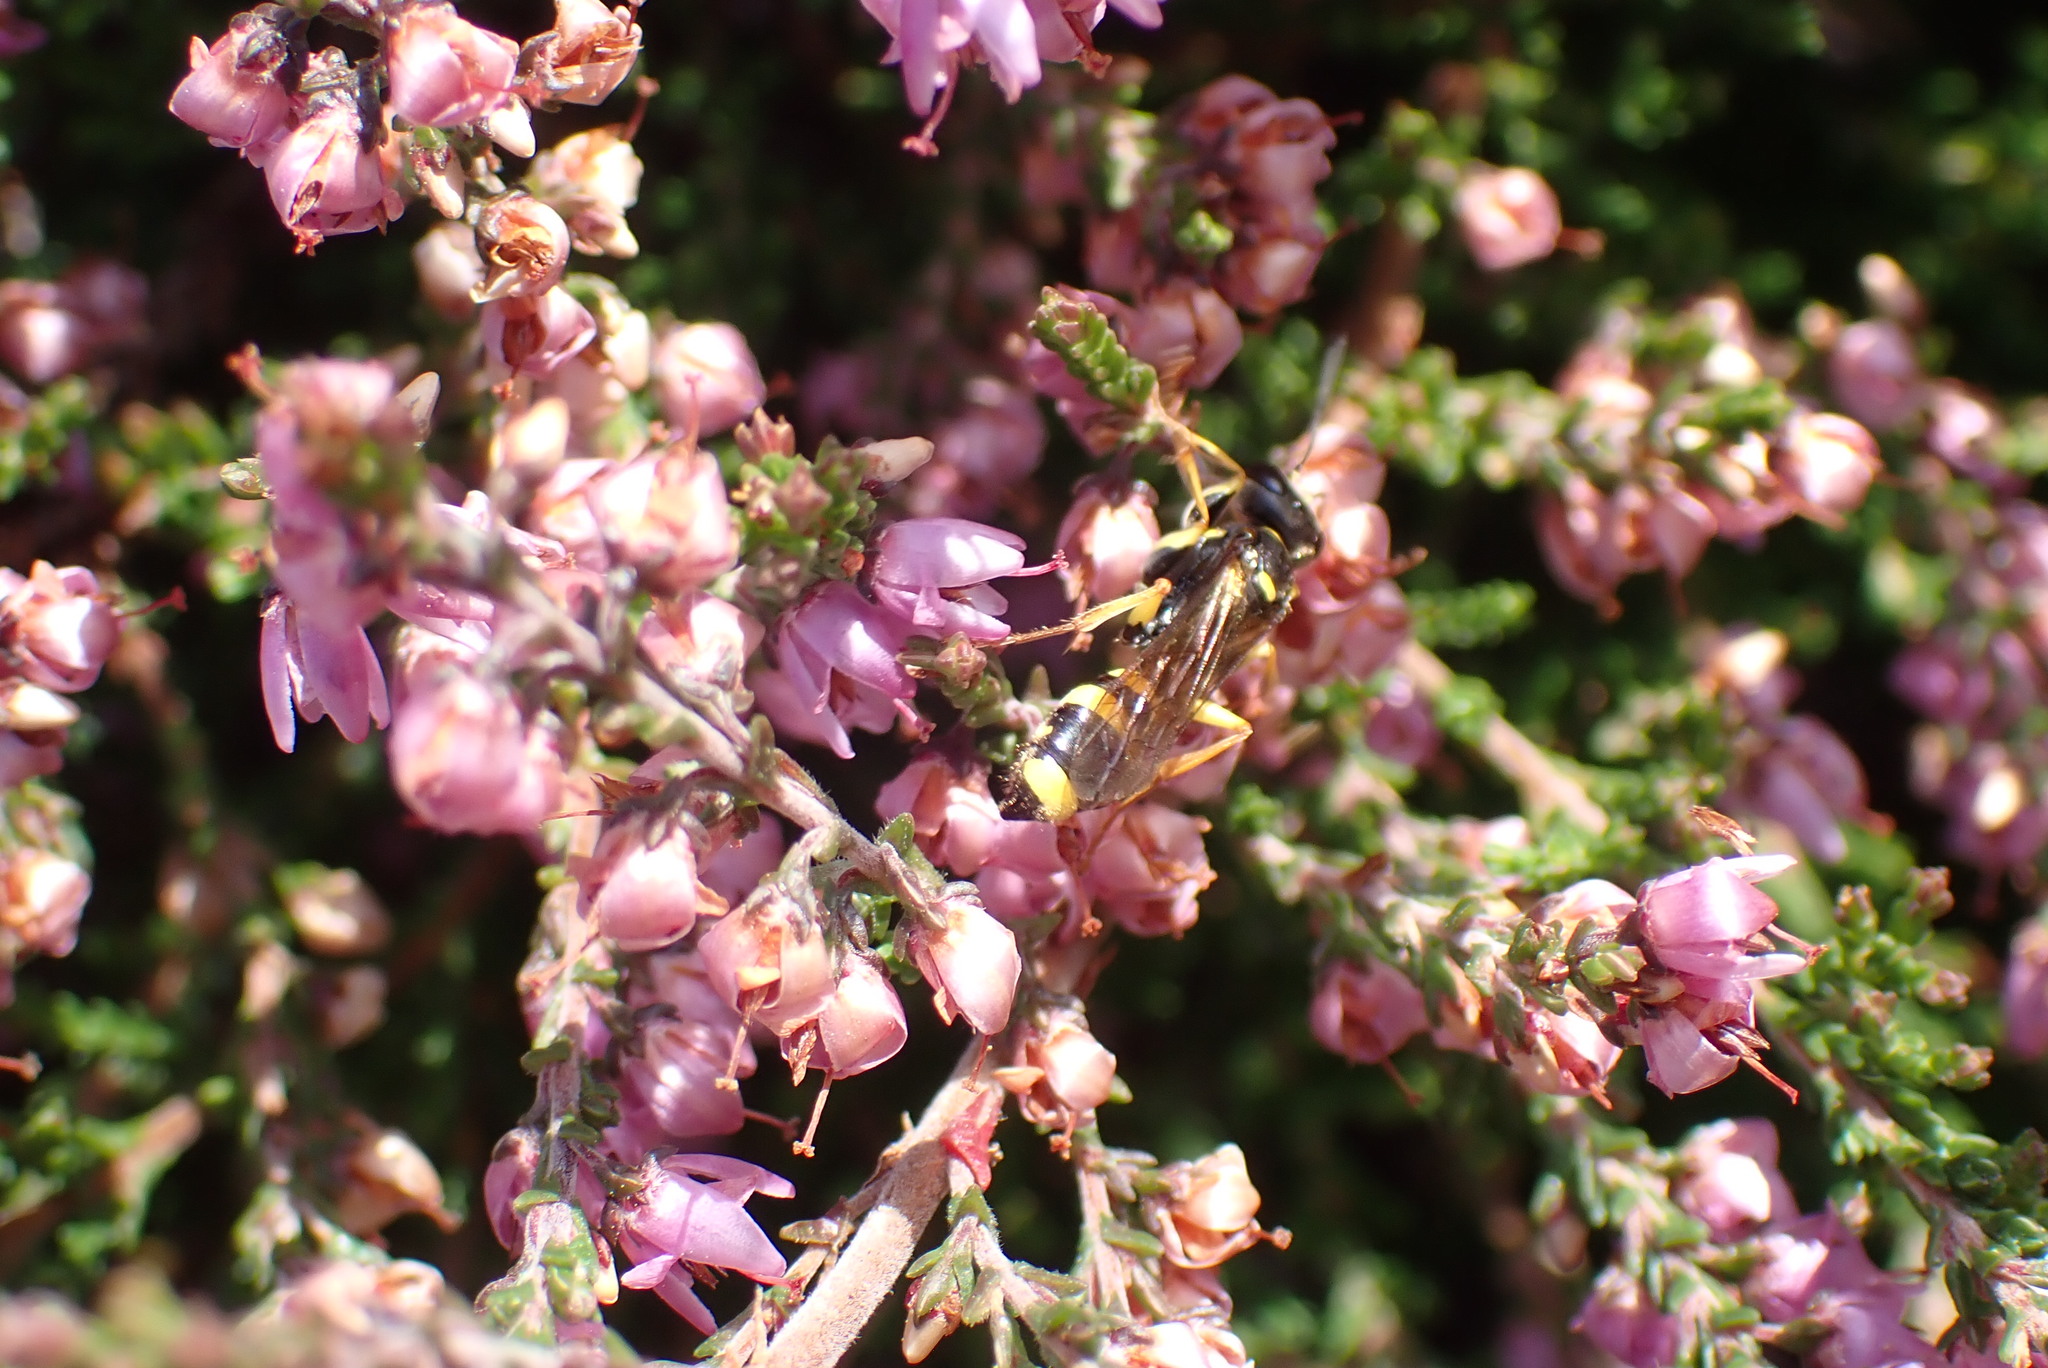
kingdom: Animalia
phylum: Arthropoda
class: Insecta
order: Hymenoptera
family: Crabronidae
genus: Mellinus
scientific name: Mellinus arvensis
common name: Field digger wasp
